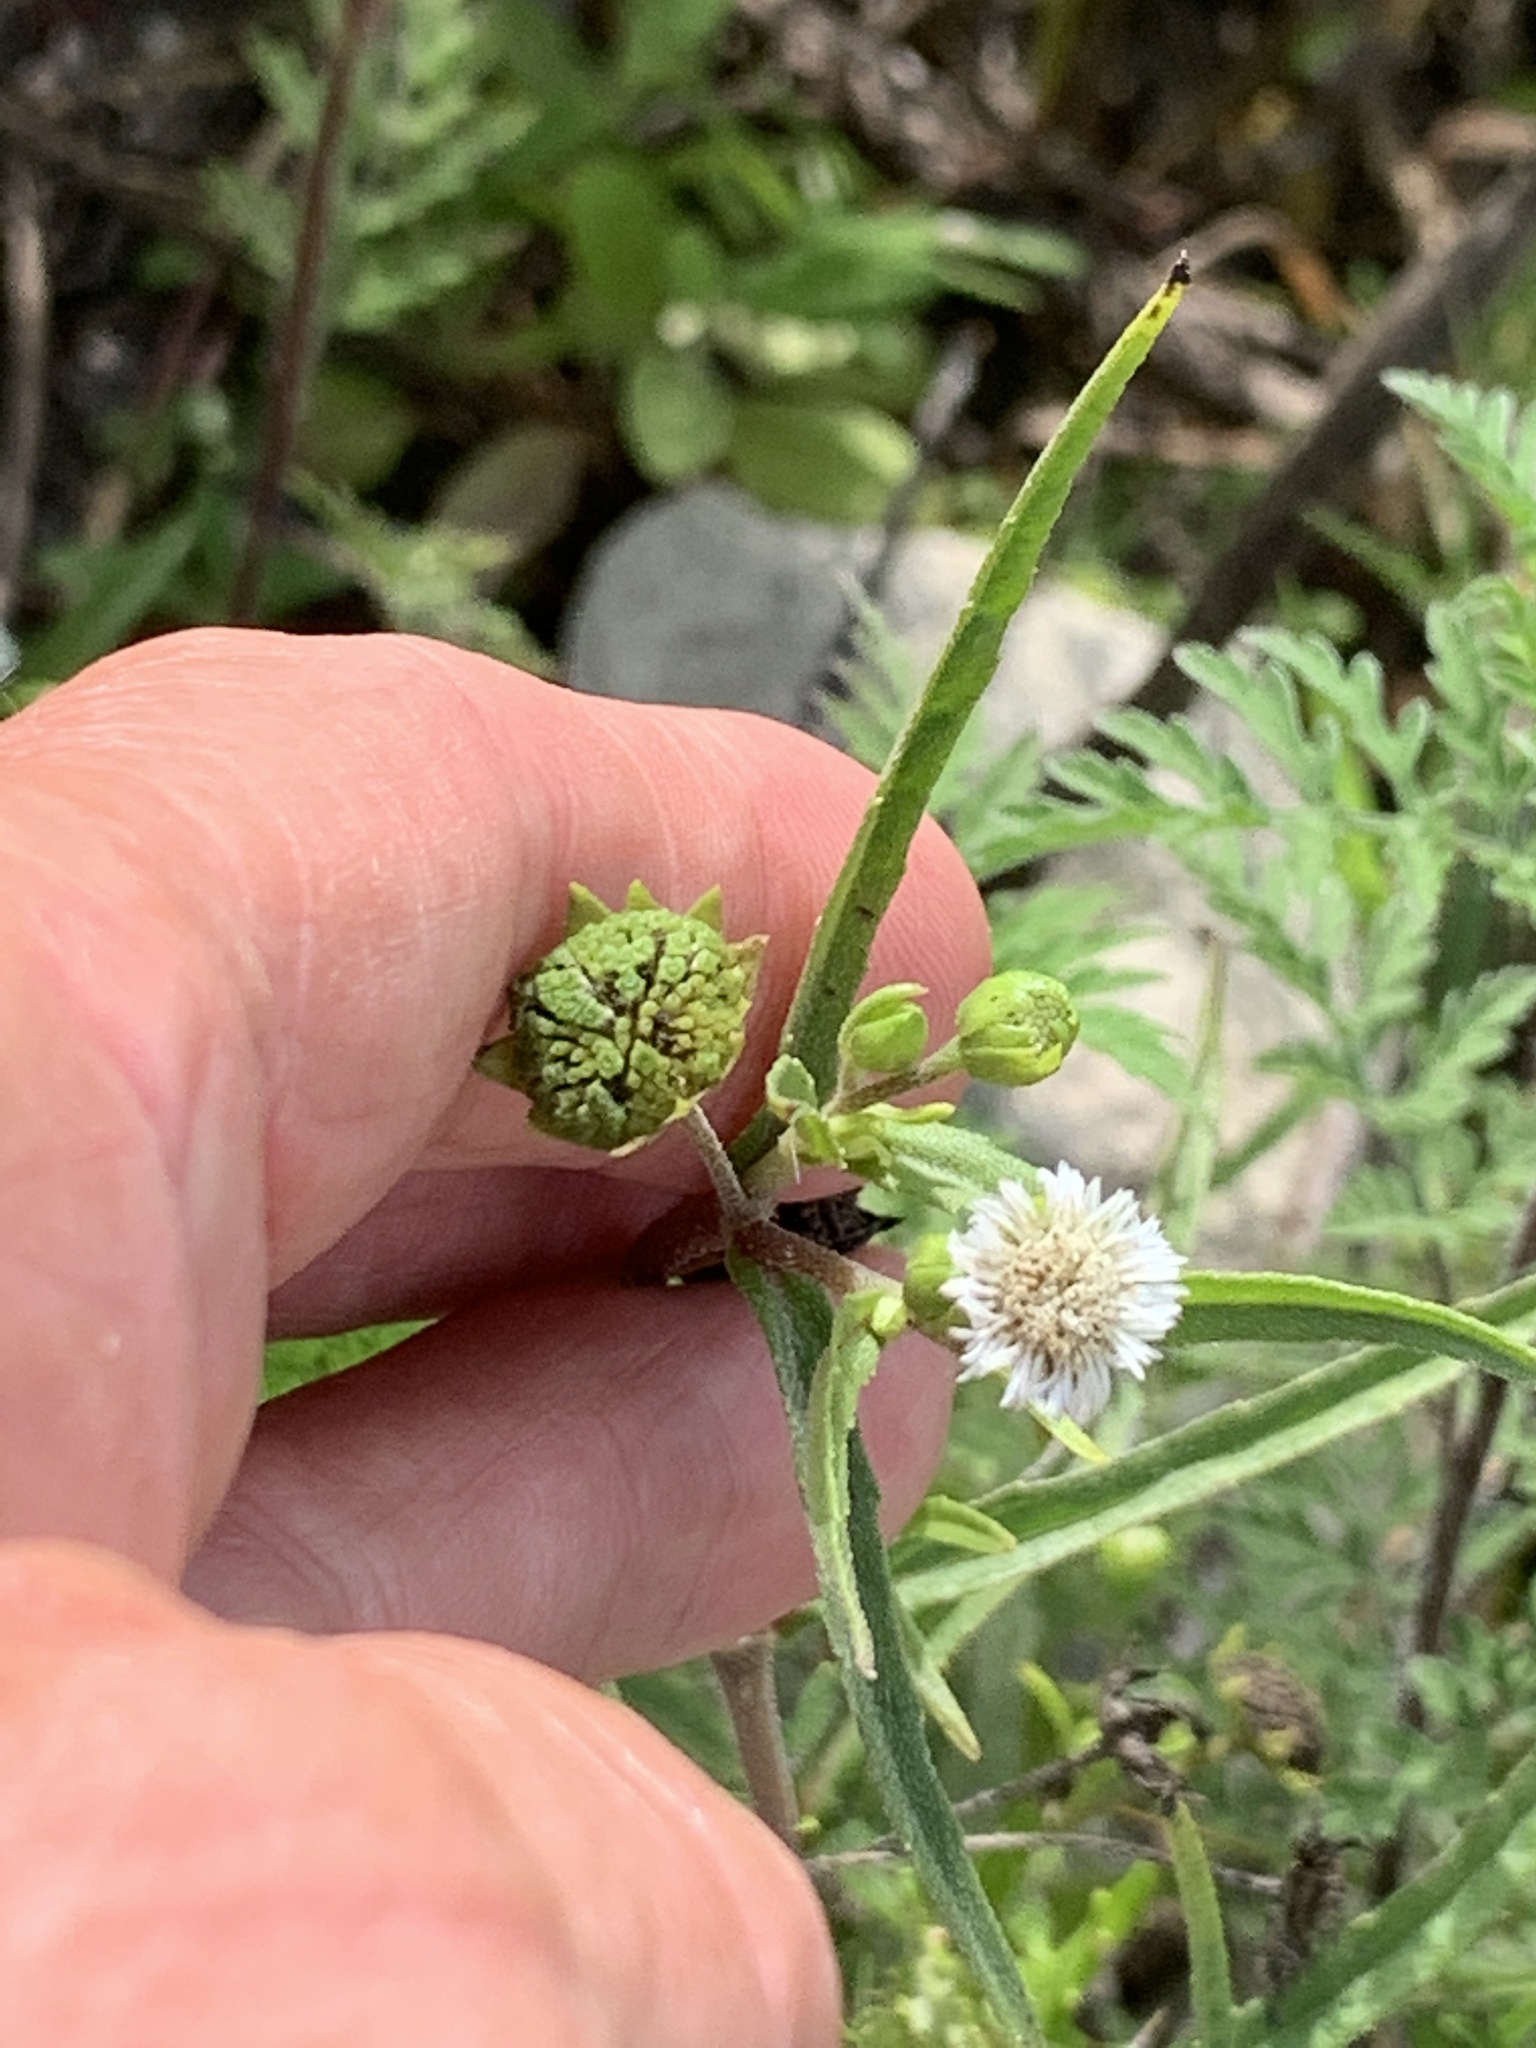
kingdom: Plantae
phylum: Tracheophyta
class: Magnoliopsida
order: Asterales
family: Asteraceae
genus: Eclipta
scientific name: Eclipta prostrata
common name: False daisy
